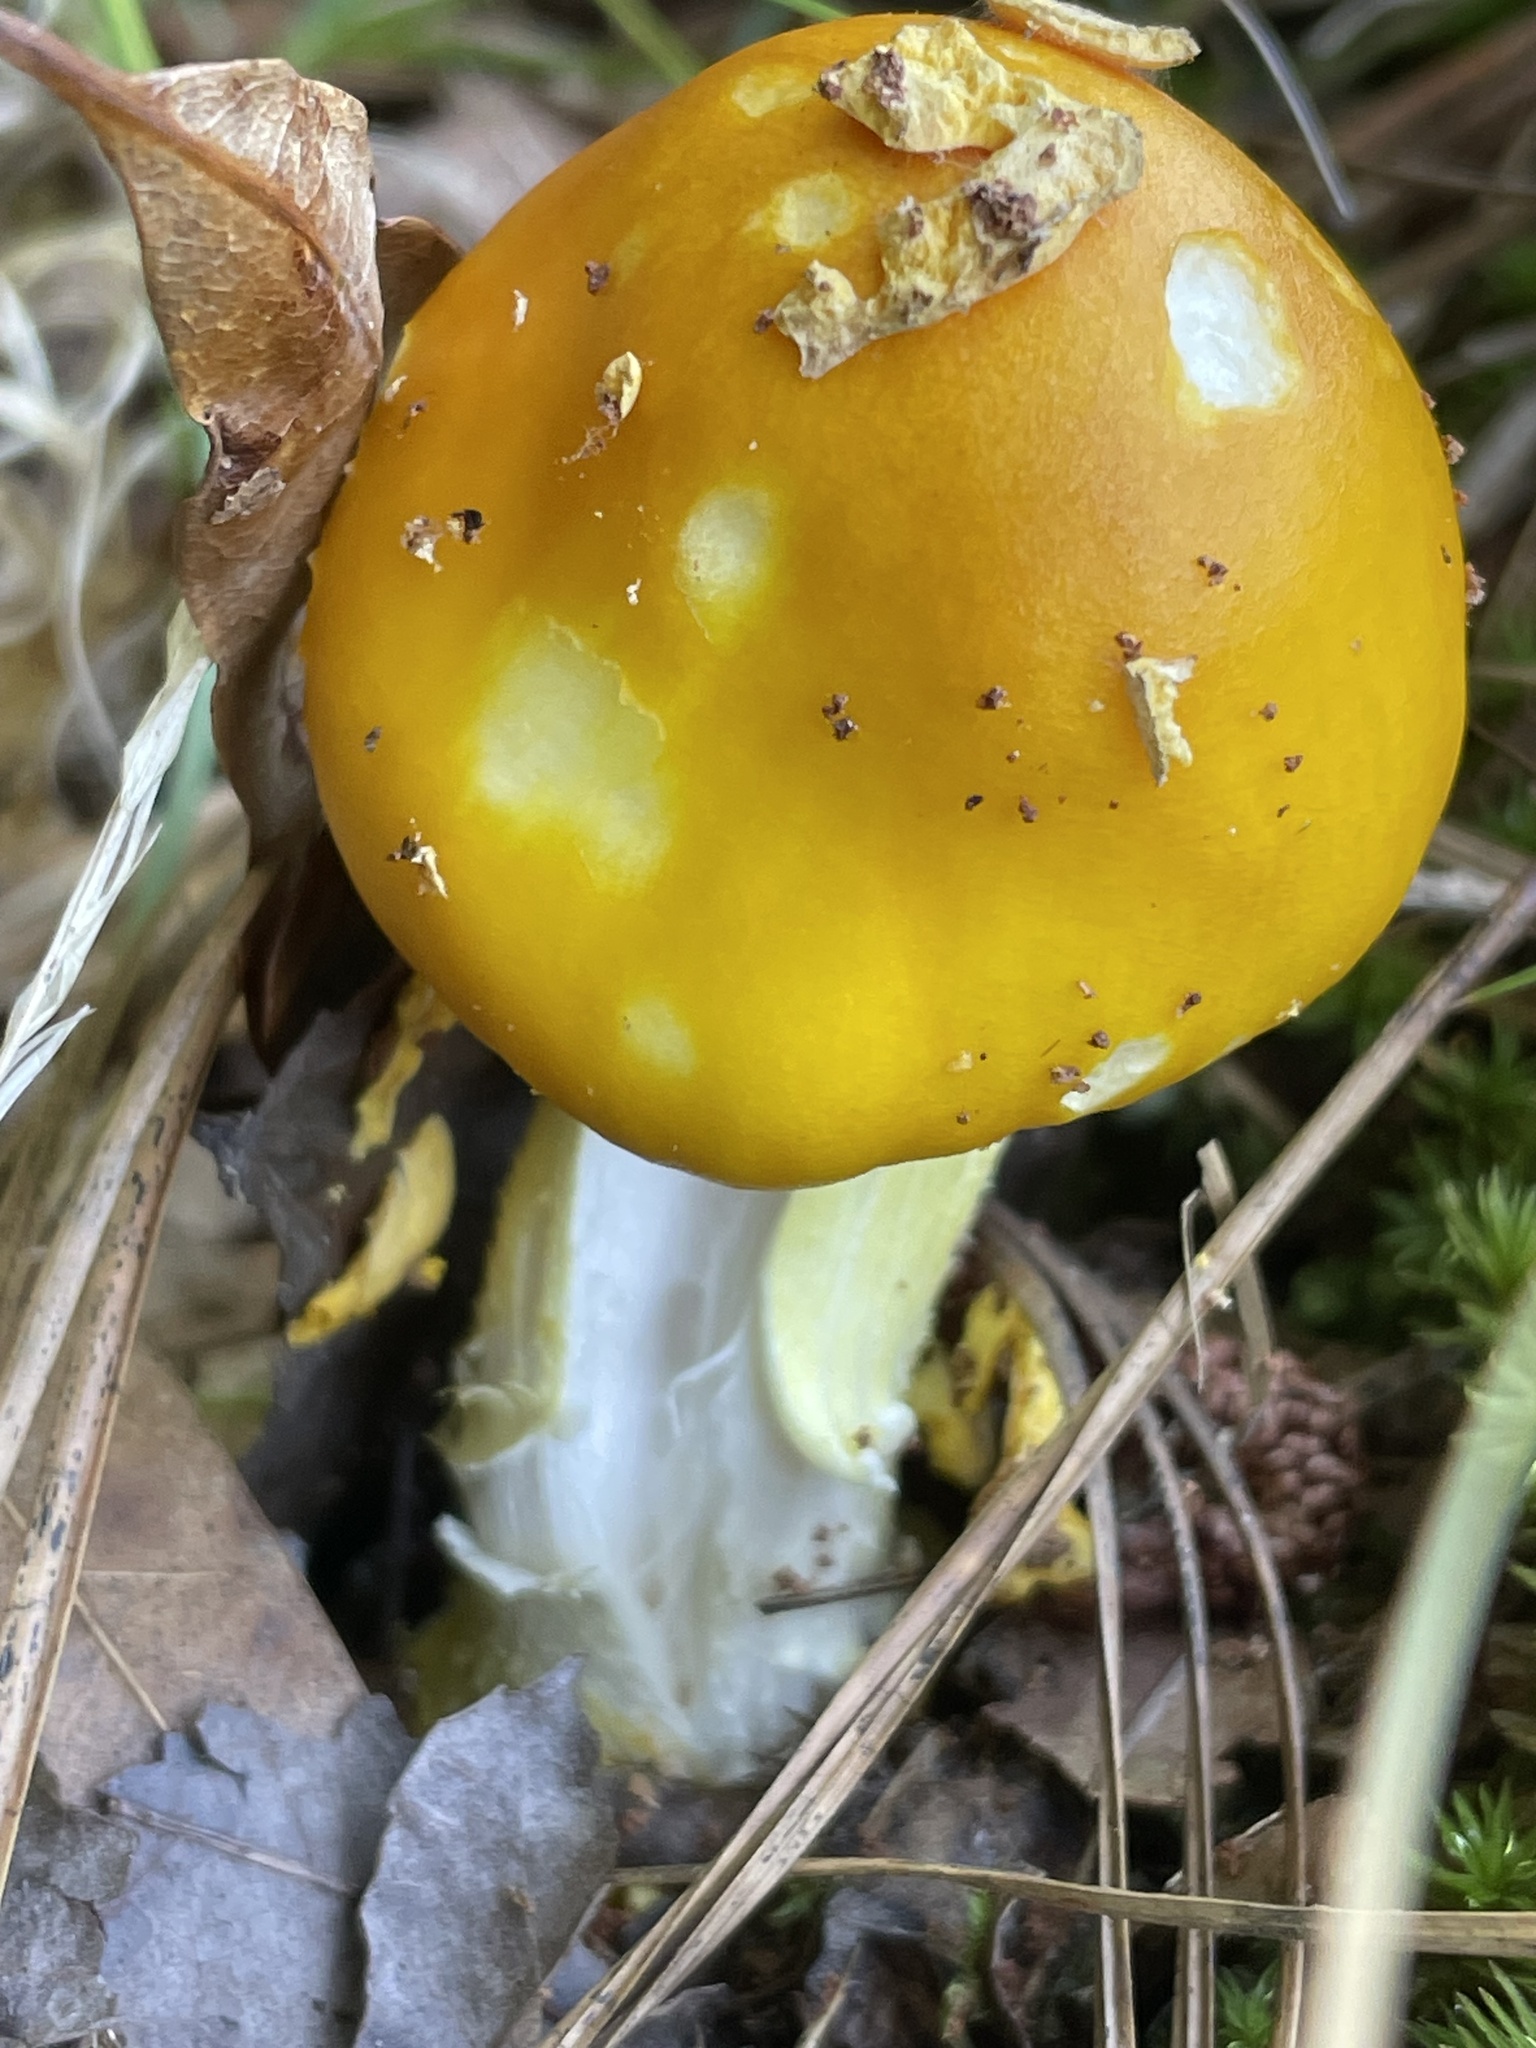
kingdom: Fungi
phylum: Basidiomycota
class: Agaricomycetes
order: Agaricales
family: Amanitaceae
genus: Amanita
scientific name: Amanita flavoconia
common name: Yellow patches
